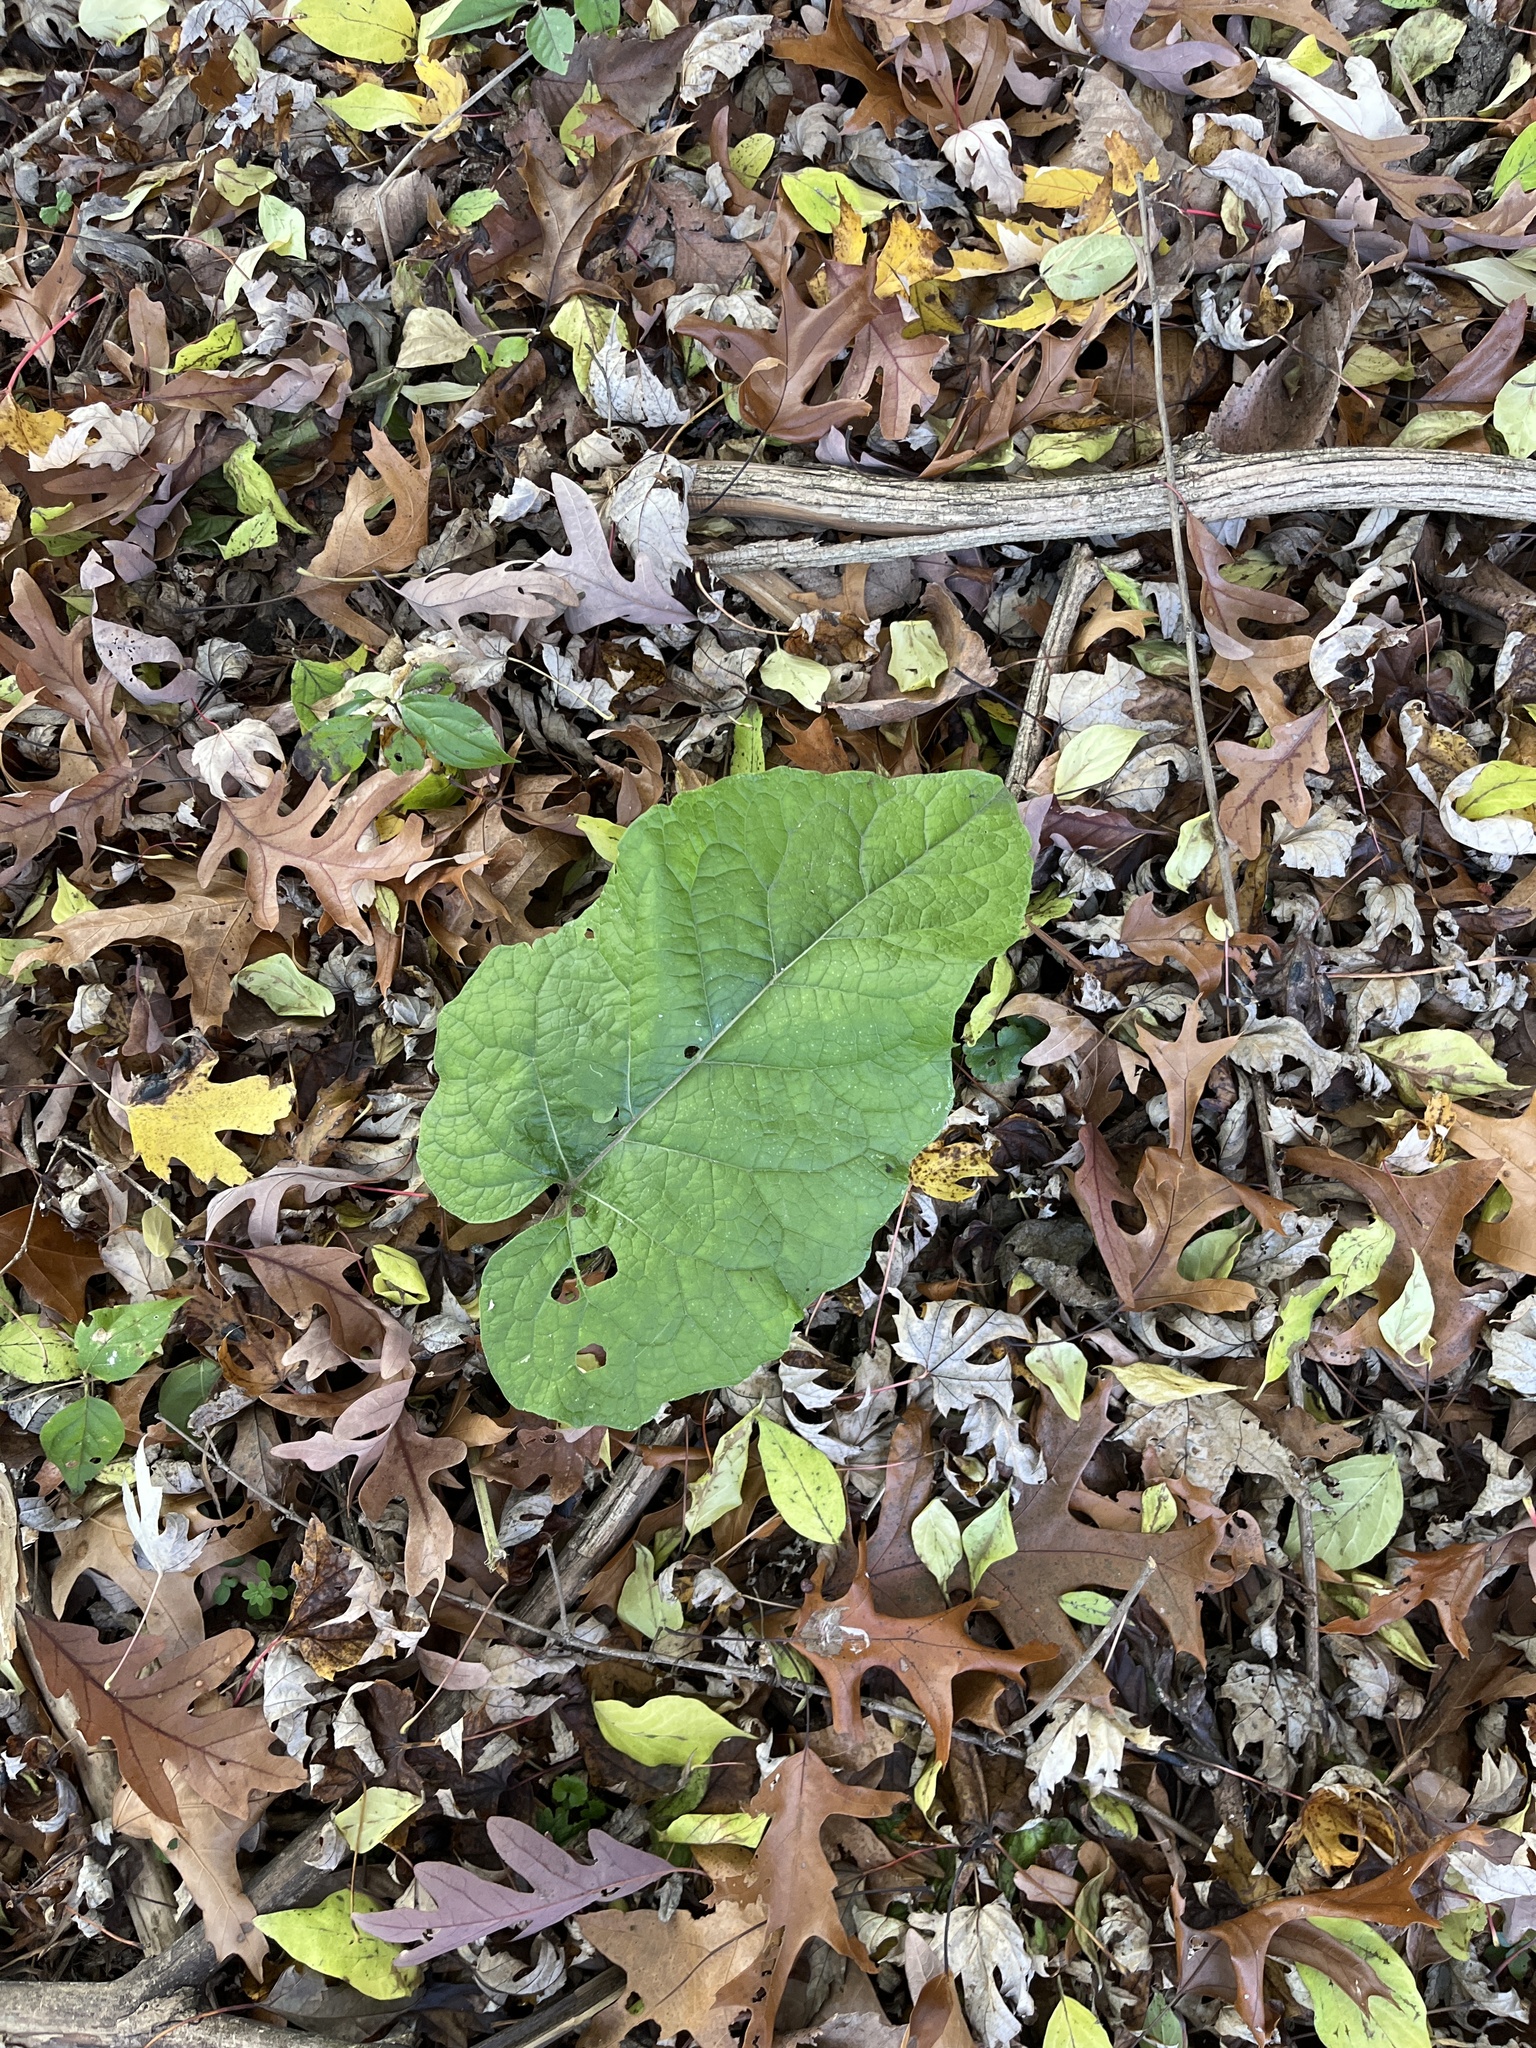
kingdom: Plantae
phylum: Tracheophyta
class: Magnoliopsida
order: Asterales
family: Asteraceae
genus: Arctium
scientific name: Arctium
